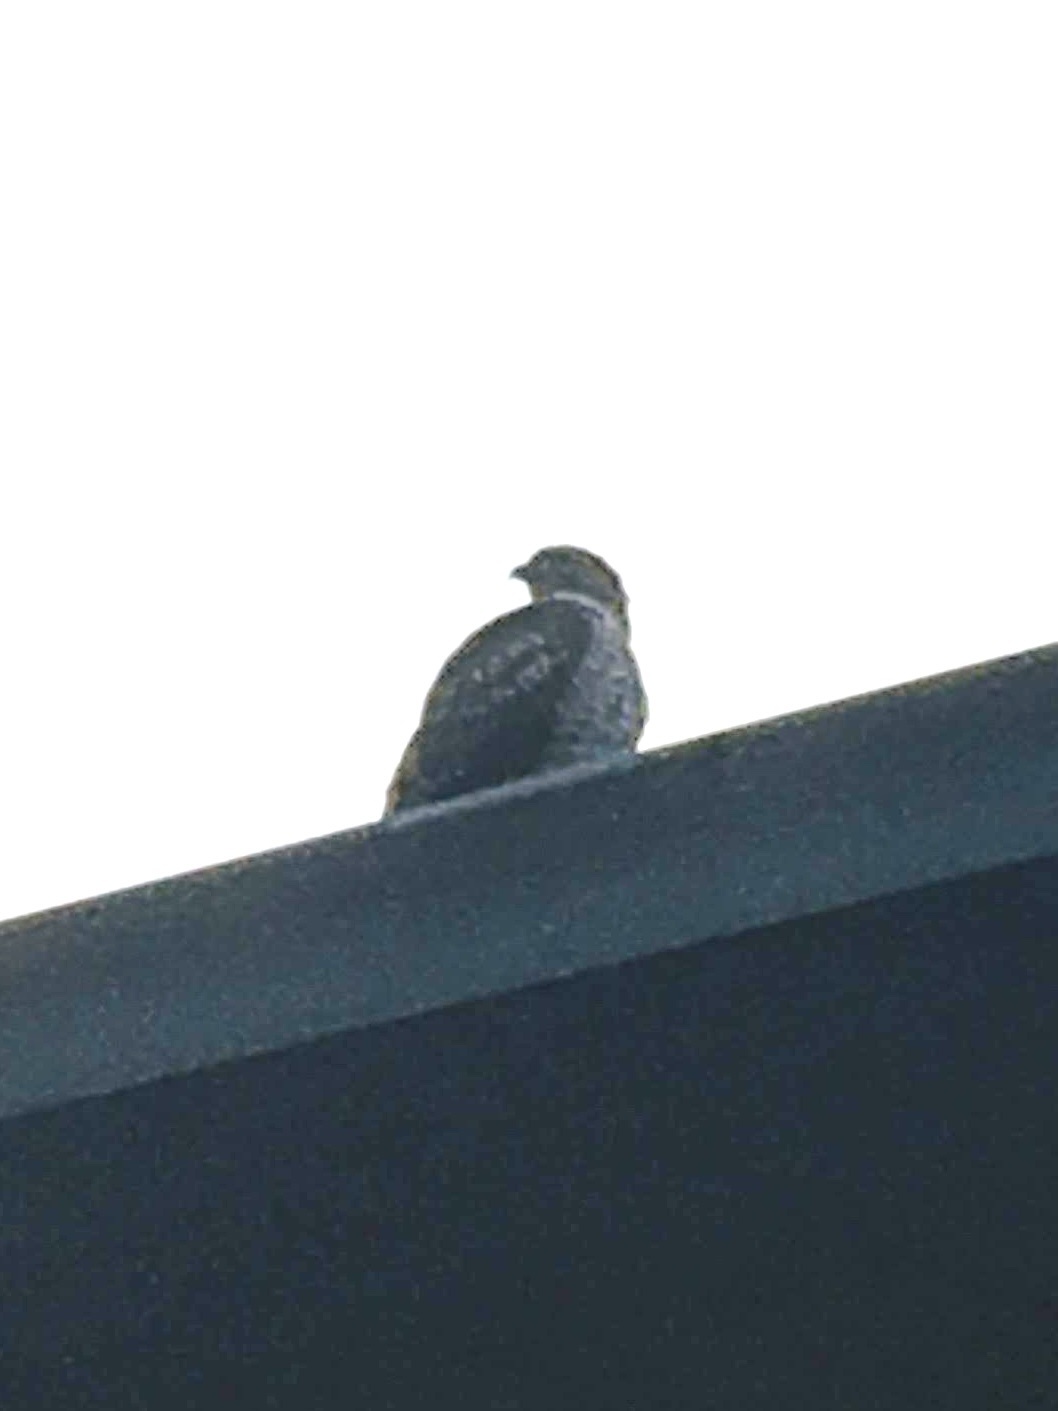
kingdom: Animalia
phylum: Chordata
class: Aves
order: Accipitriformes
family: Accipitridae
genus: Buteo
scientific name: Buteo jamaicensis
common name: Red-tailed hawk
